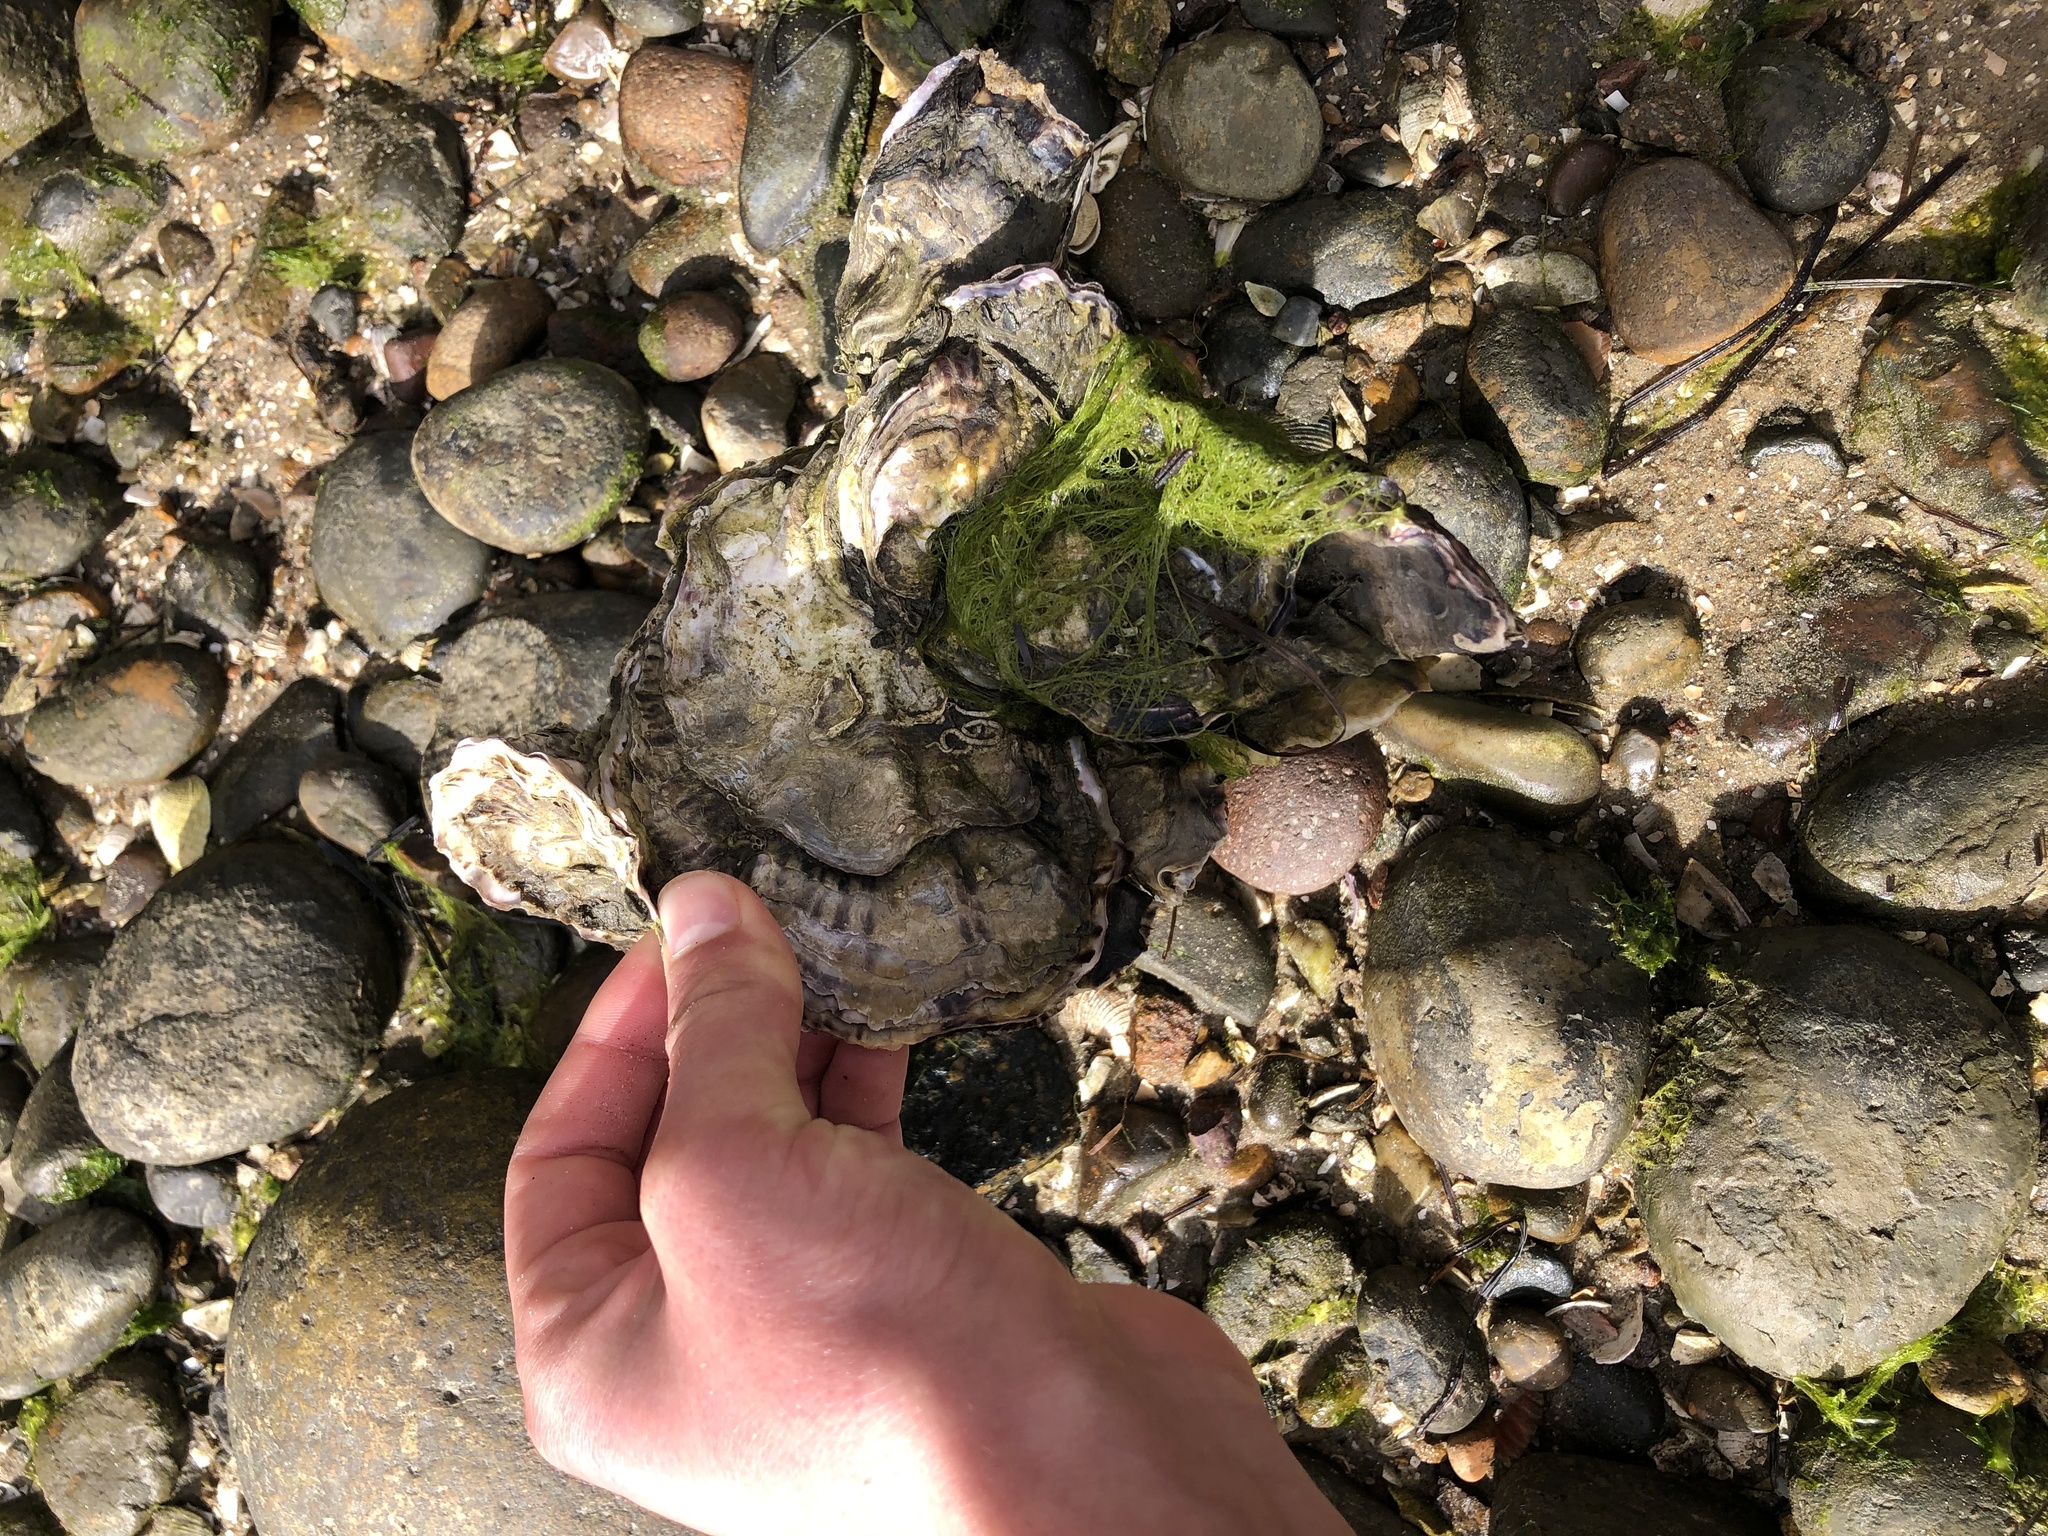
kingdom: Animalia
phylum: Mollusca
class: Bivalvia
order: Ostreida
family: Ostreidae
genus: Magallana
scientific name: Magallana gigas
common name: Pacific oyster
